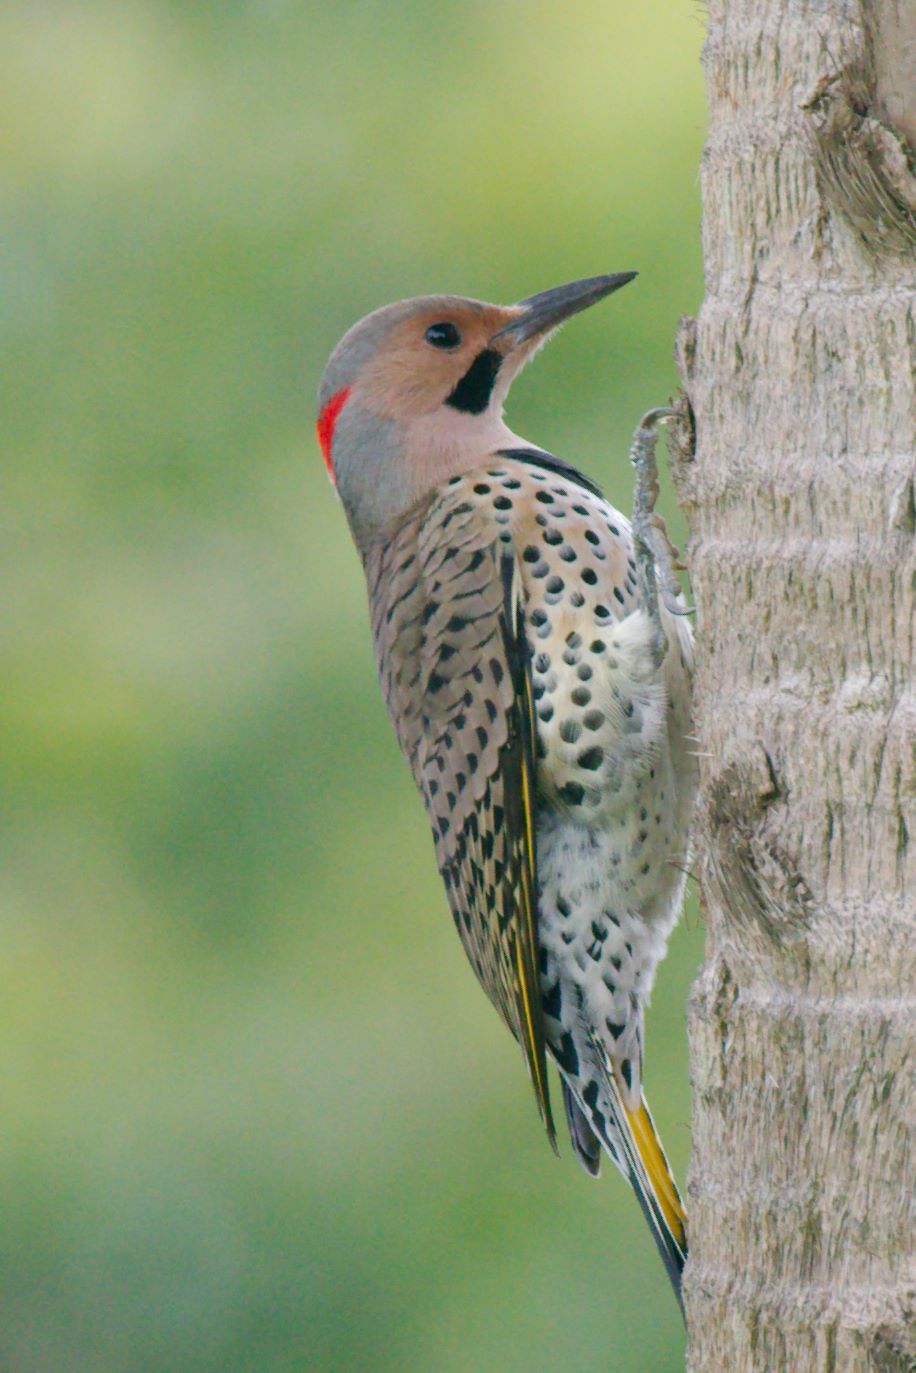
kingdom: Animalia
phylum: Chordata
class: Aves
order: Piciformes
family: Picidae
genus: Colaptes
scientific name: Colaptes auratus
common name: Northern flicker
